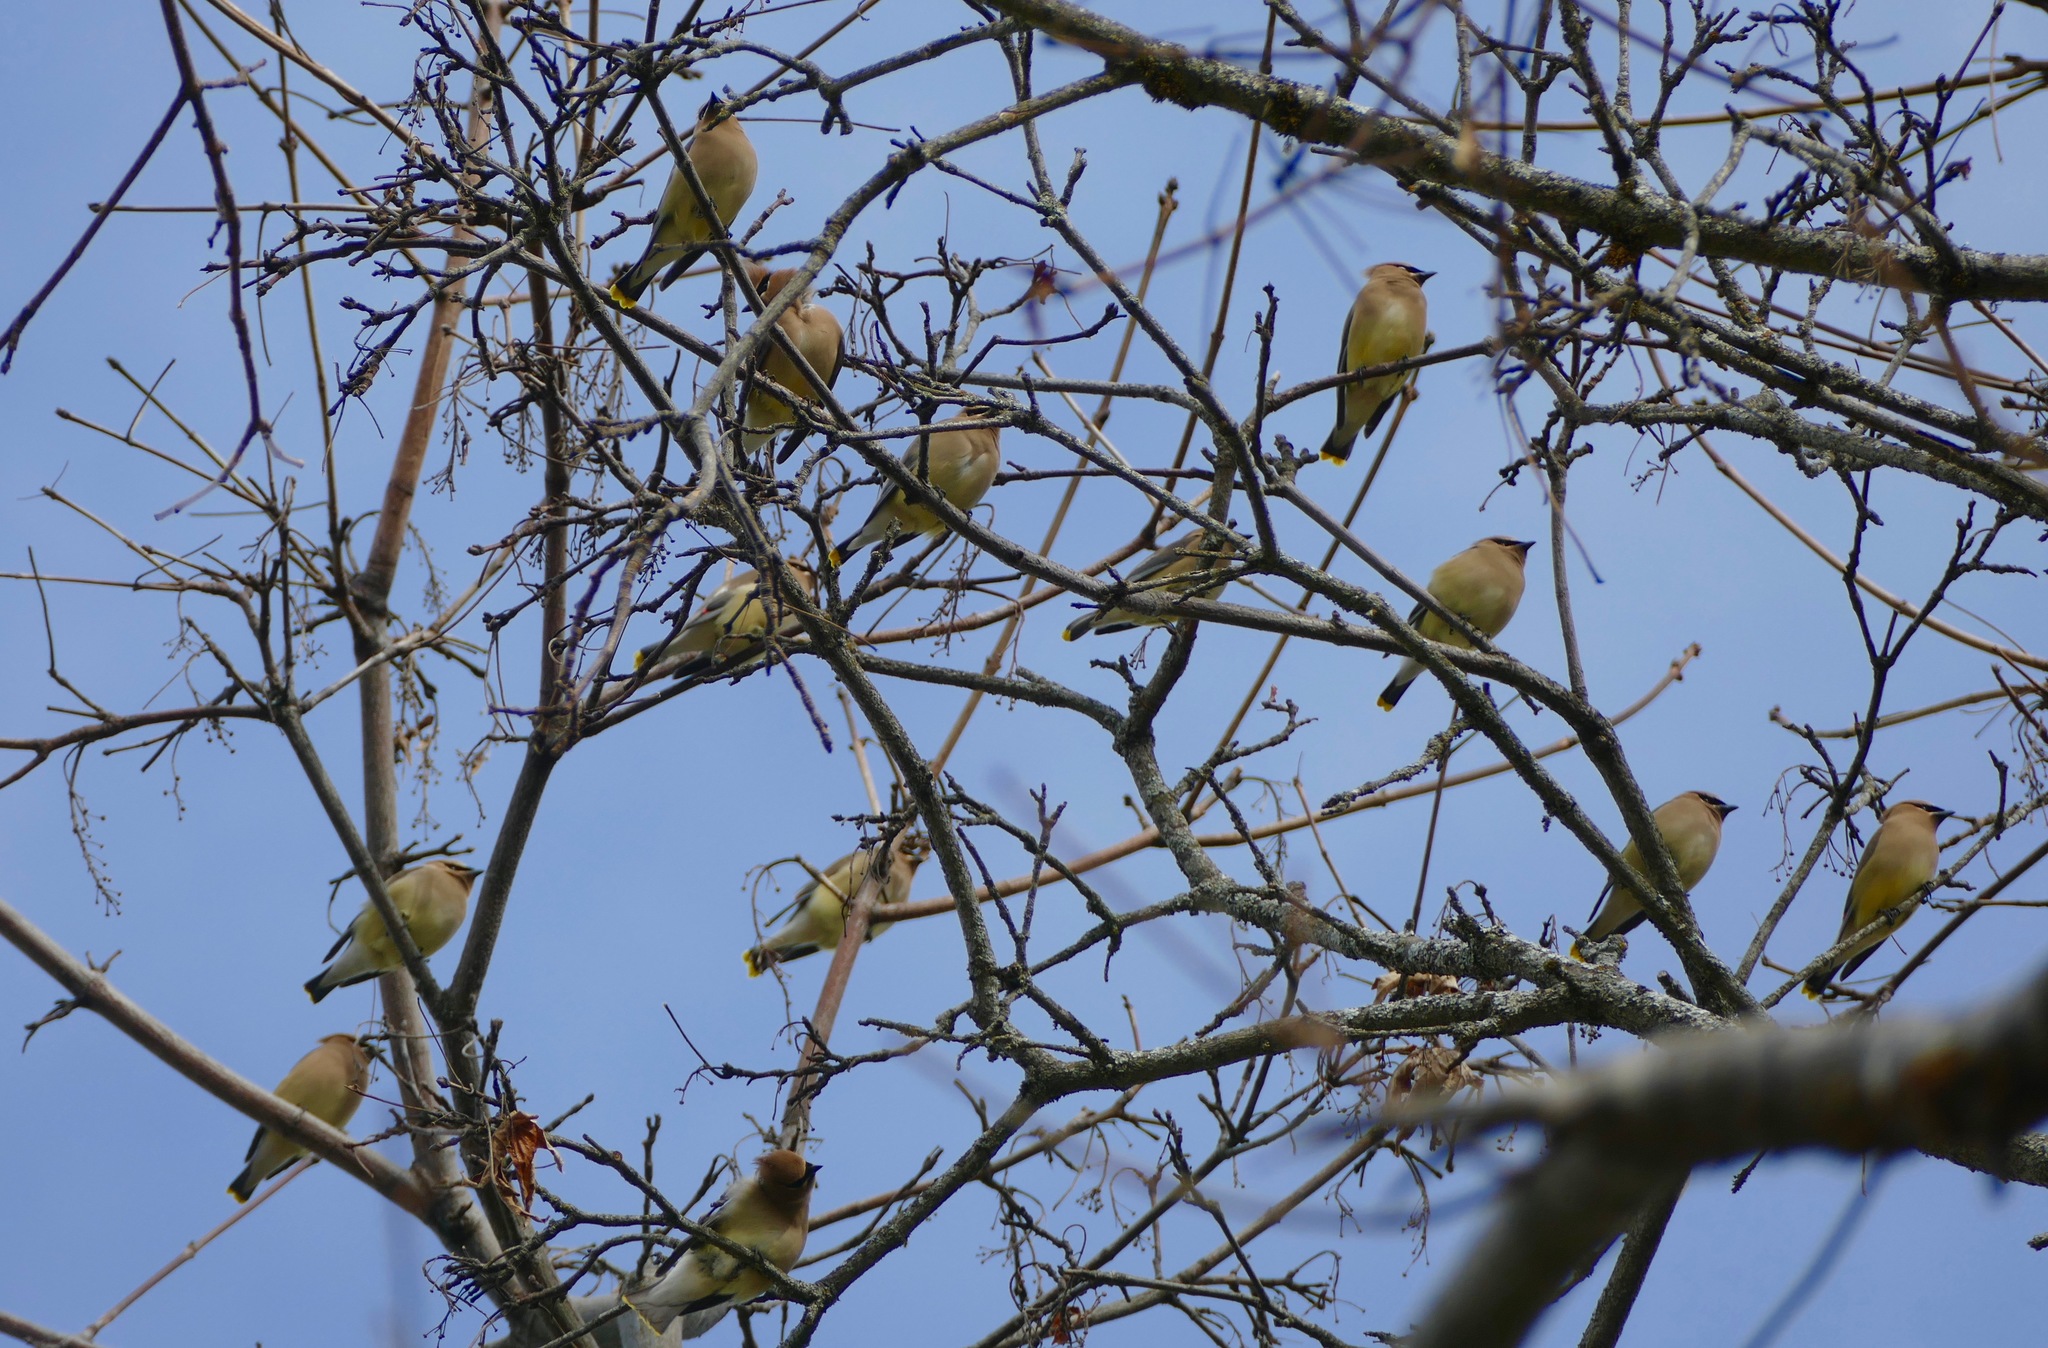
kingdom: Animalia
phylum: Chordata
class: Aves
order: Passeriformes
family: Bombycillidae
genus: Bombycilla
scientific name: Bombycilla cedrorum
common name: Cedar waxwing
